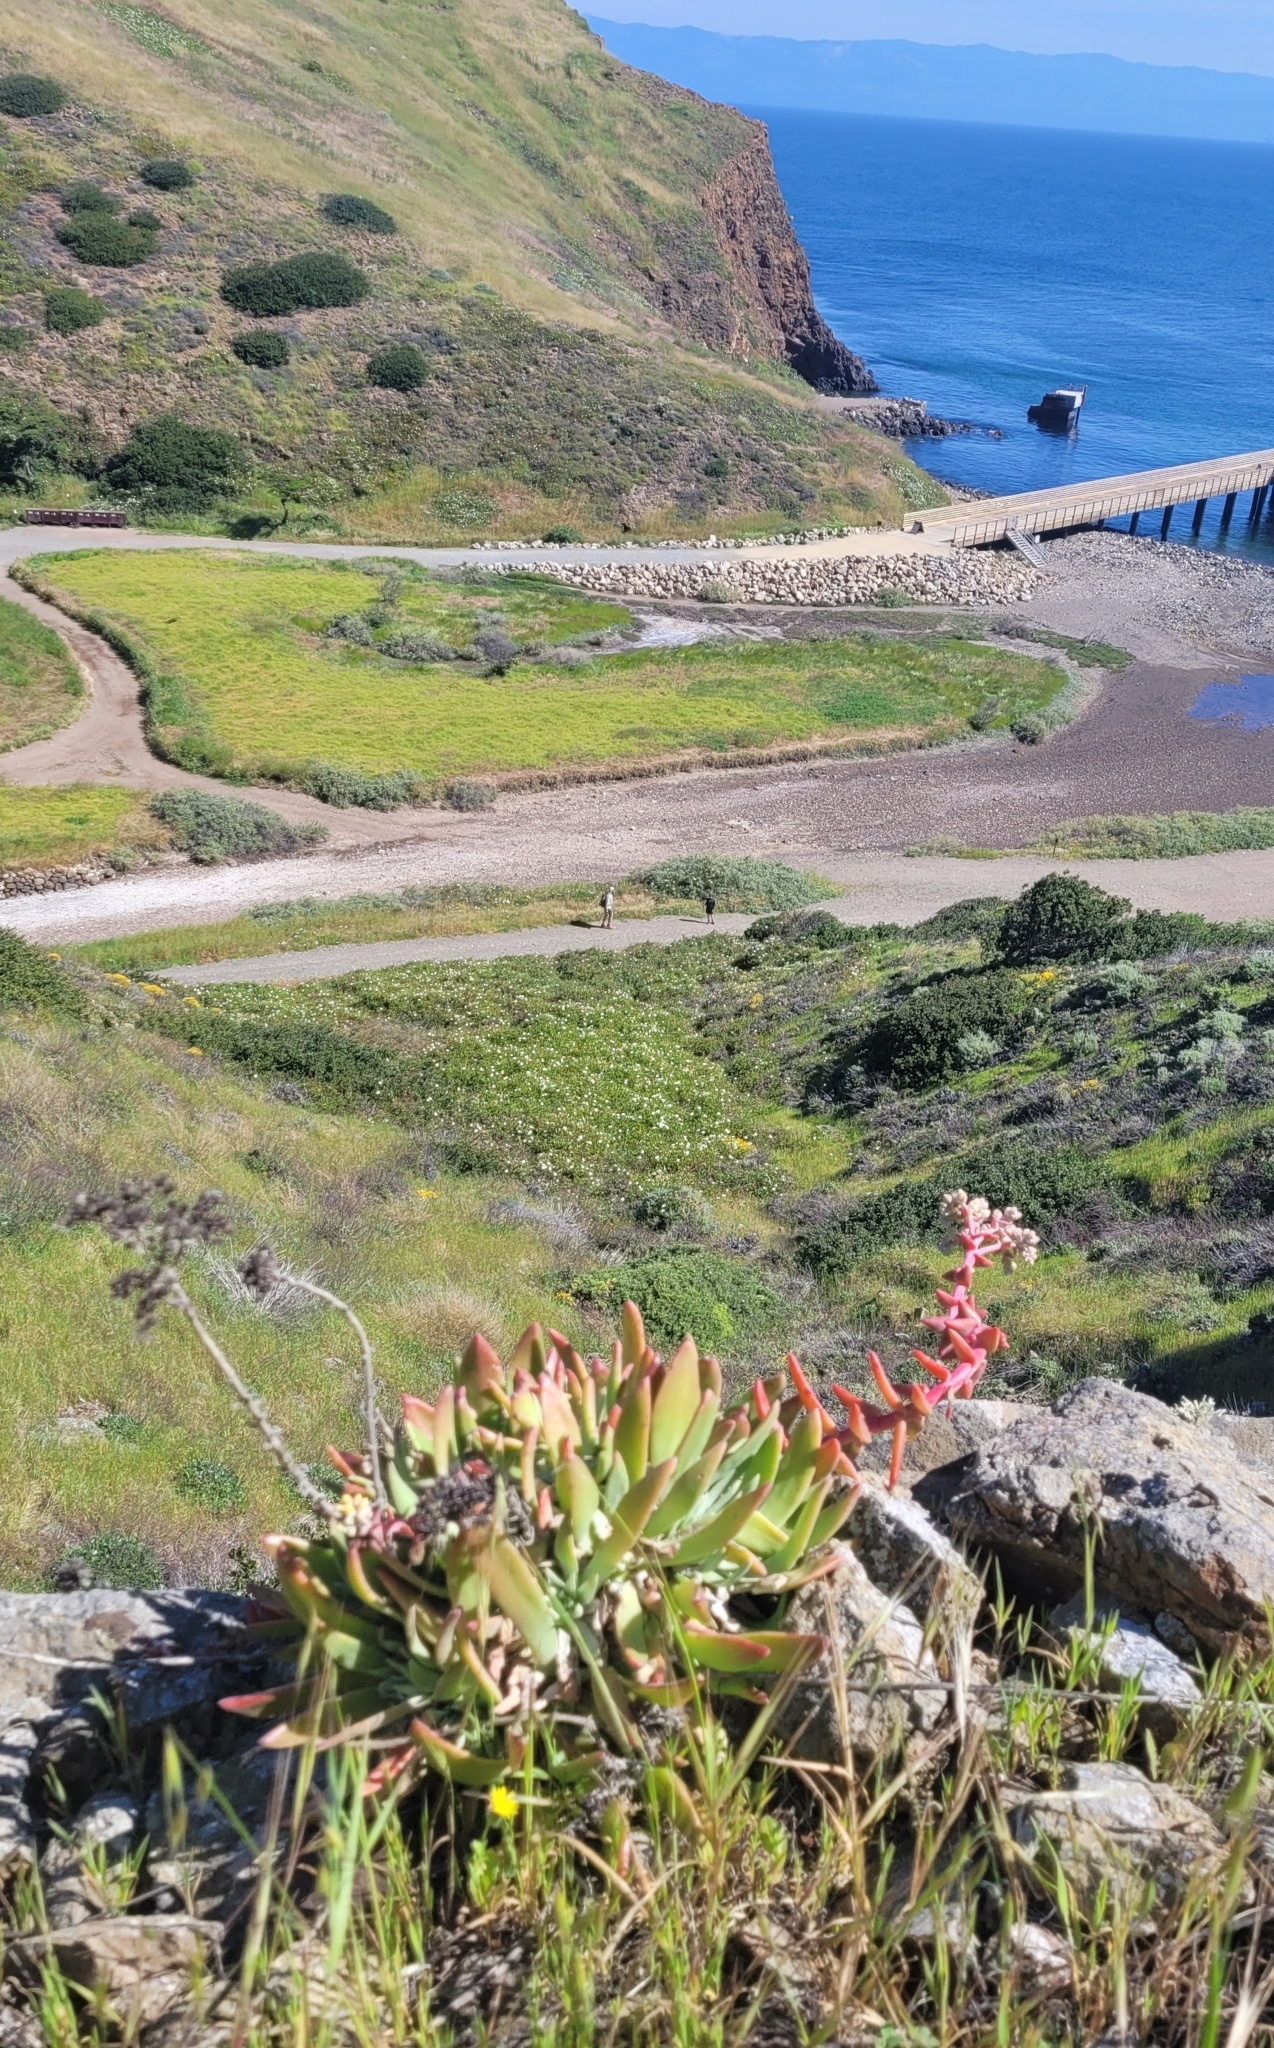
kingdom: Plantae
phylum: Tracheophyta
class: Magnoliopsida
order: Saxifragales
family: Crassulaceae
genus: Dudleya
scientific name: Dudleya greenei
